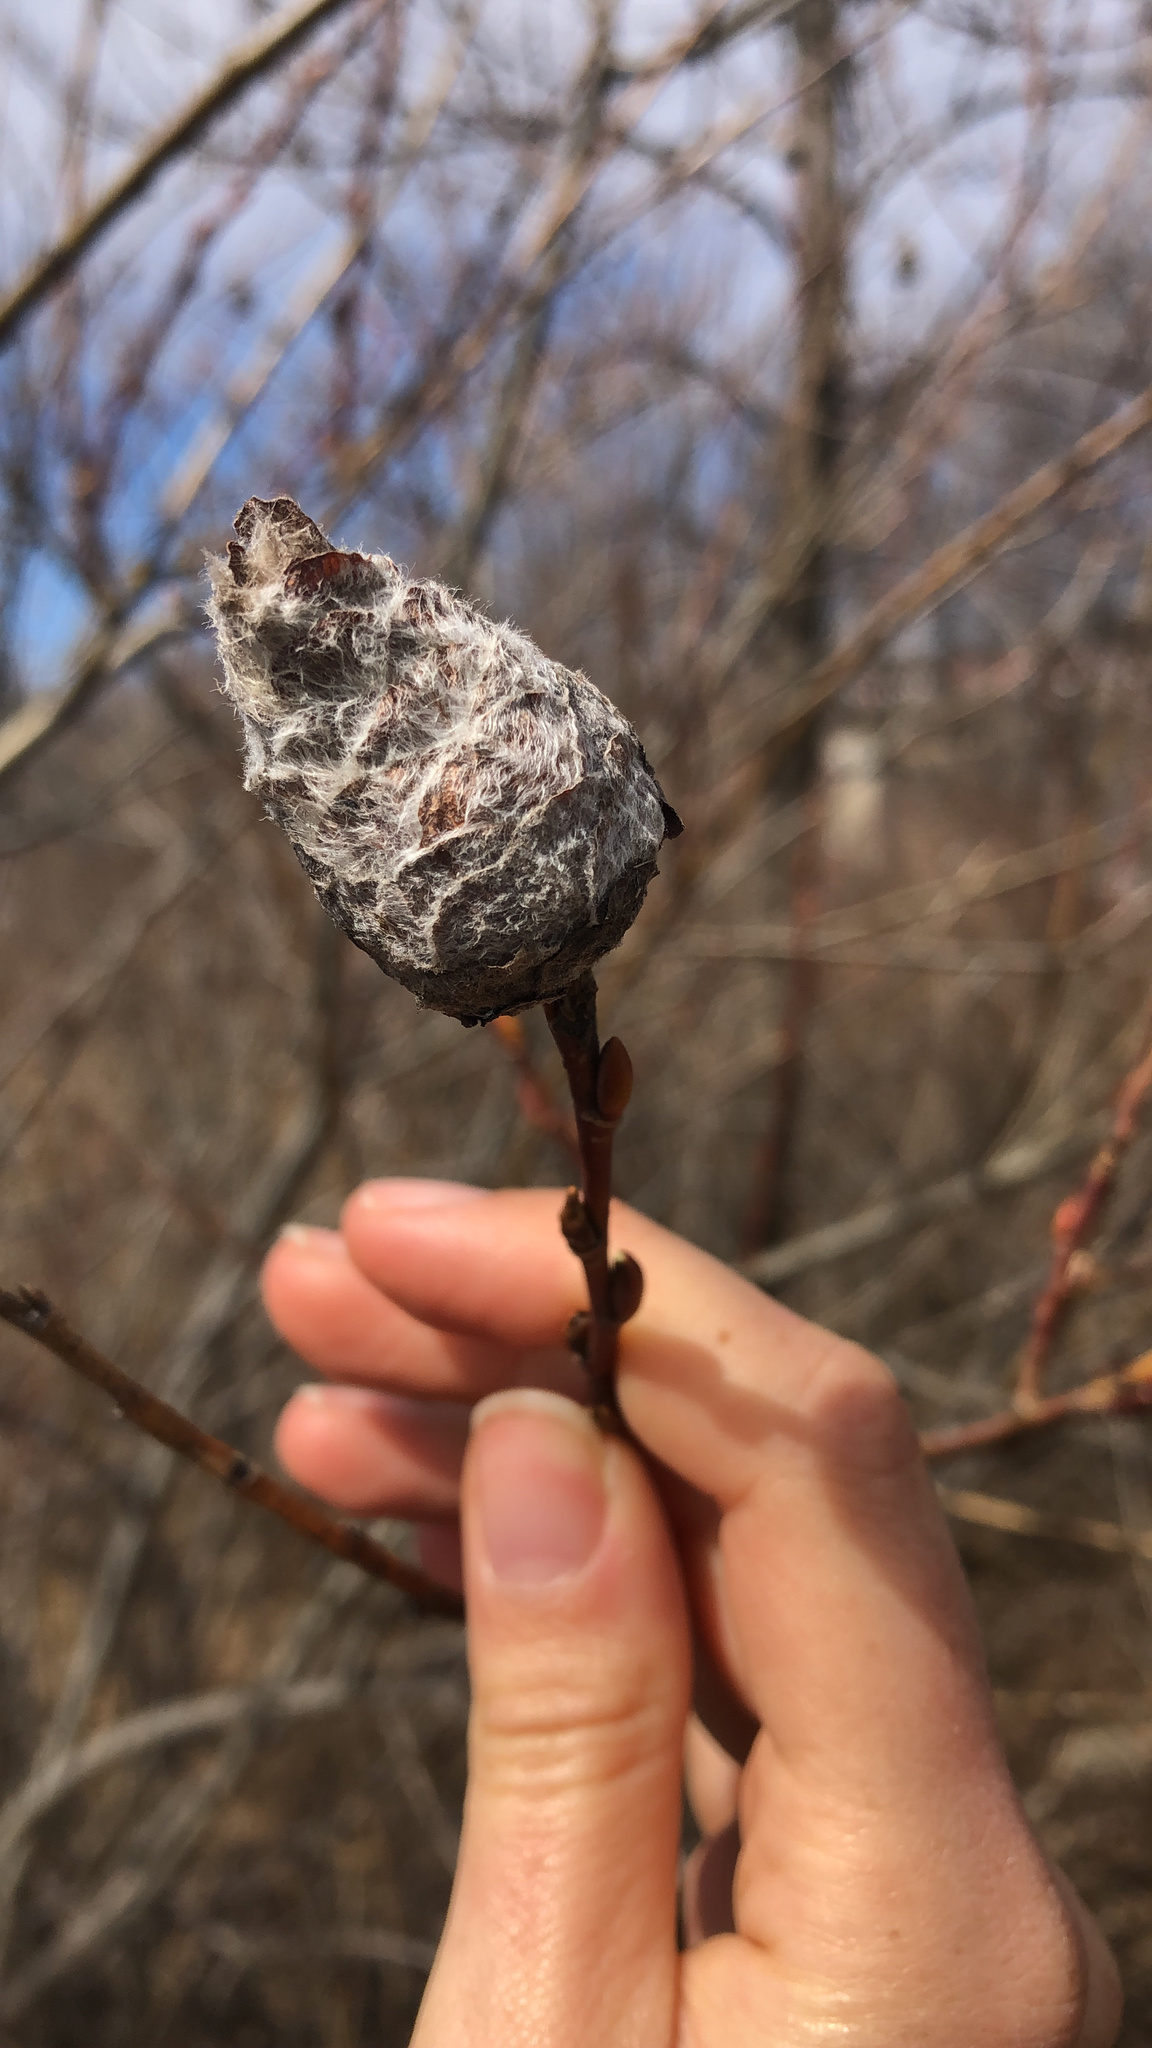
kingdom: Animalia
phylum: Arthropoda
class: Insecta
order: Diptera
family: Cecidomyiidae
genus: Rabdophaga
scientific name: Rabdophaga strobiloides
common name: Willow pinecone gall midge
